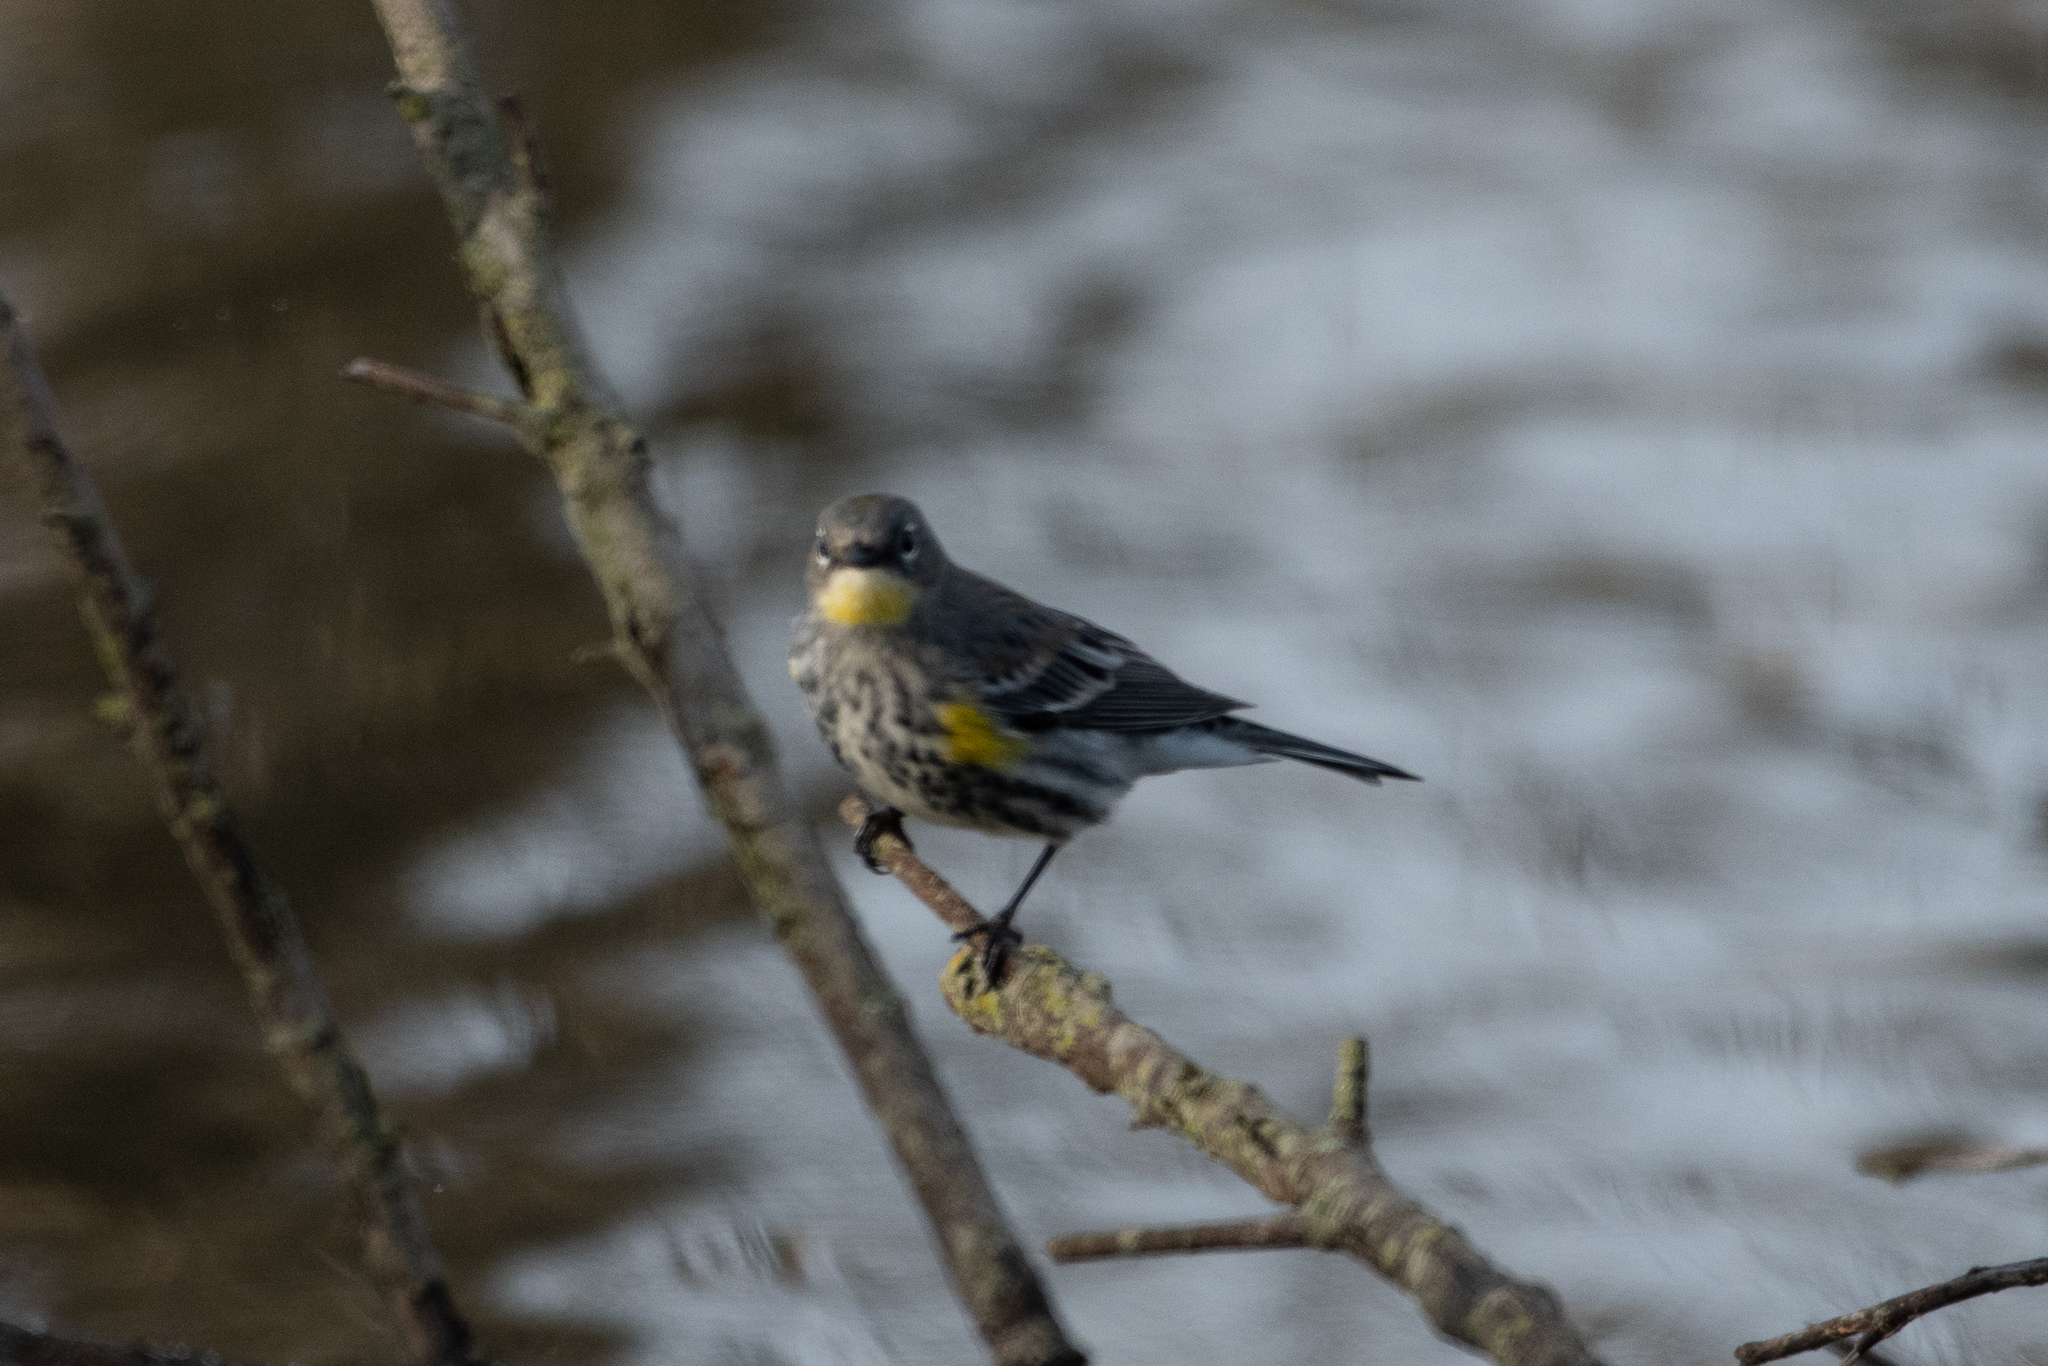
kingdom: Animalia
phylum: Chordata
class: Aves
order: Passeriformes
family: Parulidae
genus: Setophaga
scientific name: Setophaga coronata
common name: Myrtle warbler
